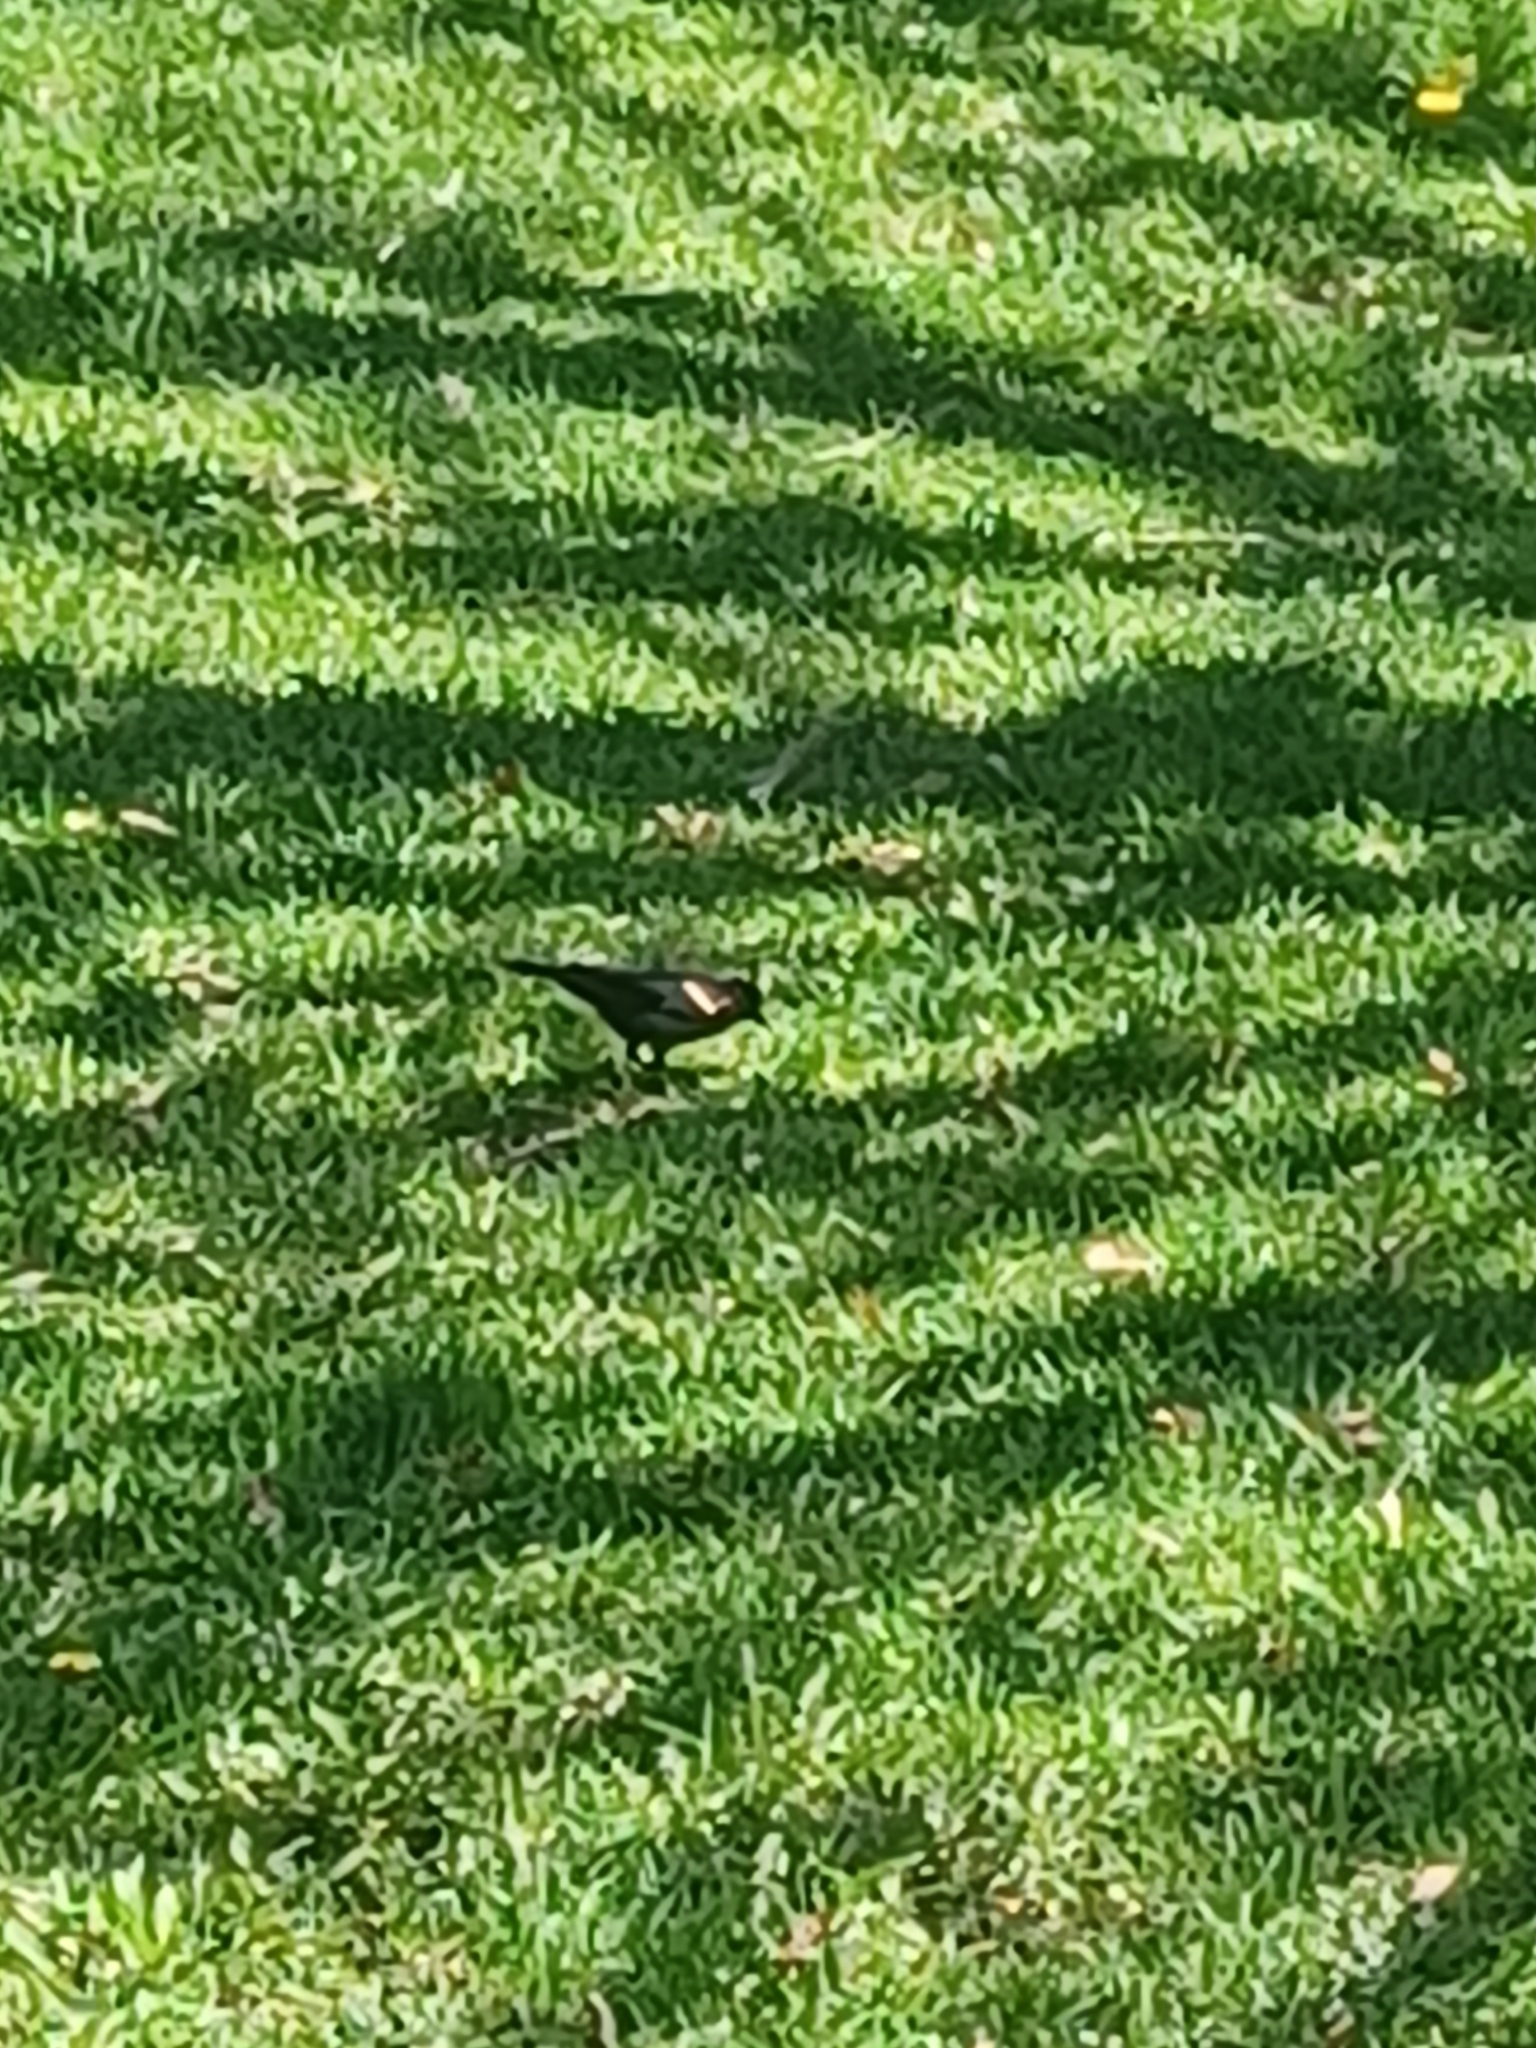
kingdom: Animalia
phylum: Chordata
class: Aves
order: Passeriformes
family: Icteridae
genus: Agelaius
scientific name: Agelaius phoeniceus
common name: Red-winged blackbird
